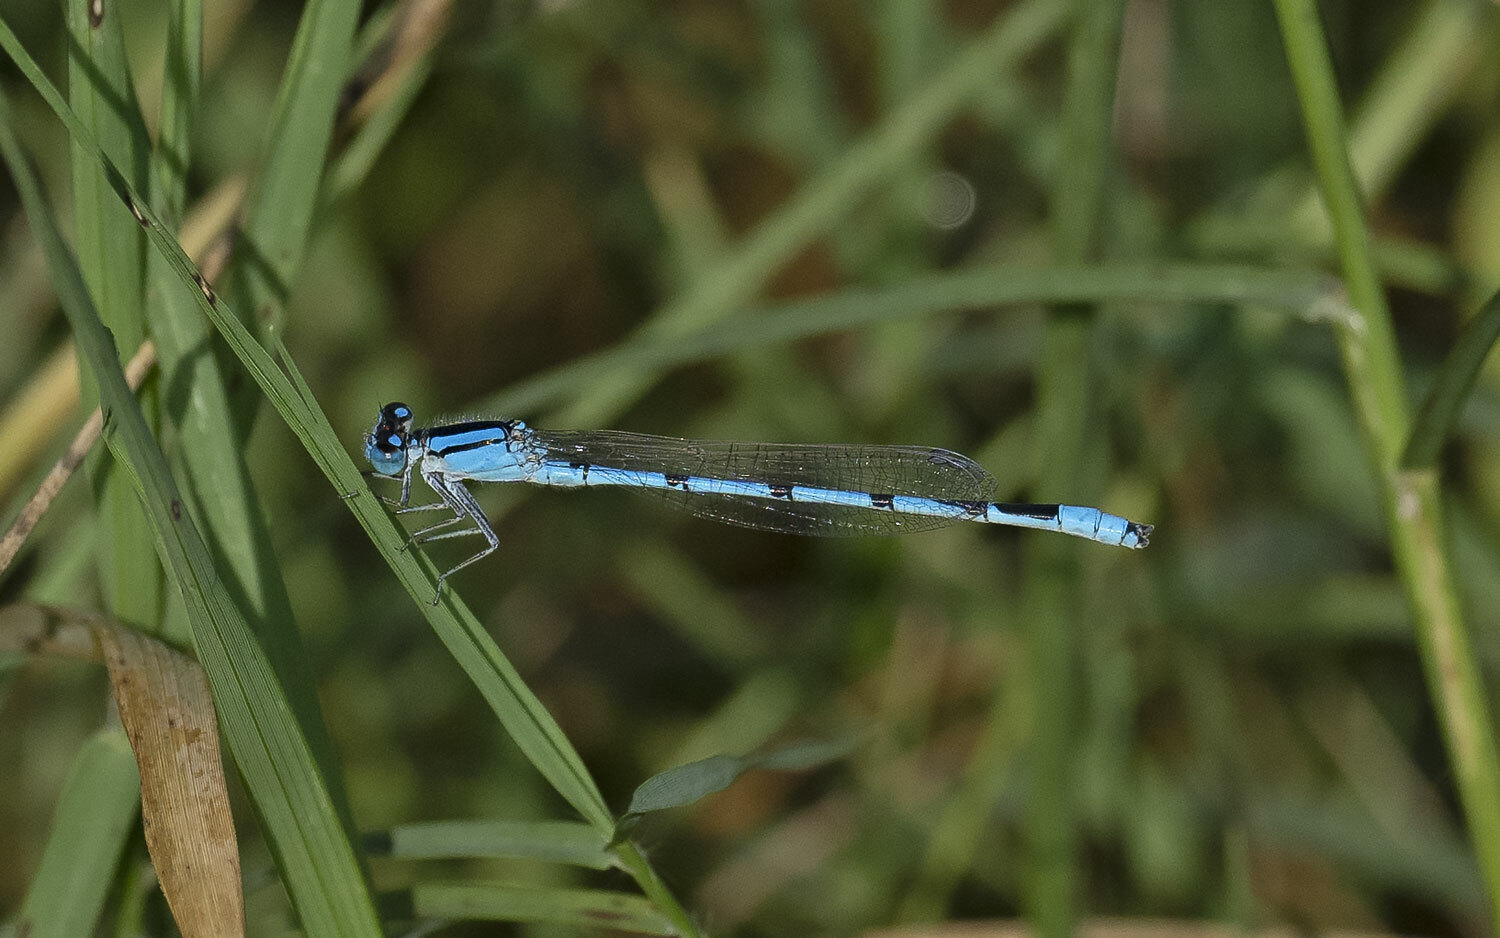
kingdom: Animalia
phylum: Arthropoda
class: Insecta
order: Odonata
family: Coenagrionidae
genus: Enallagma
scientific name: Enallagma civile
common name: Damselfly
